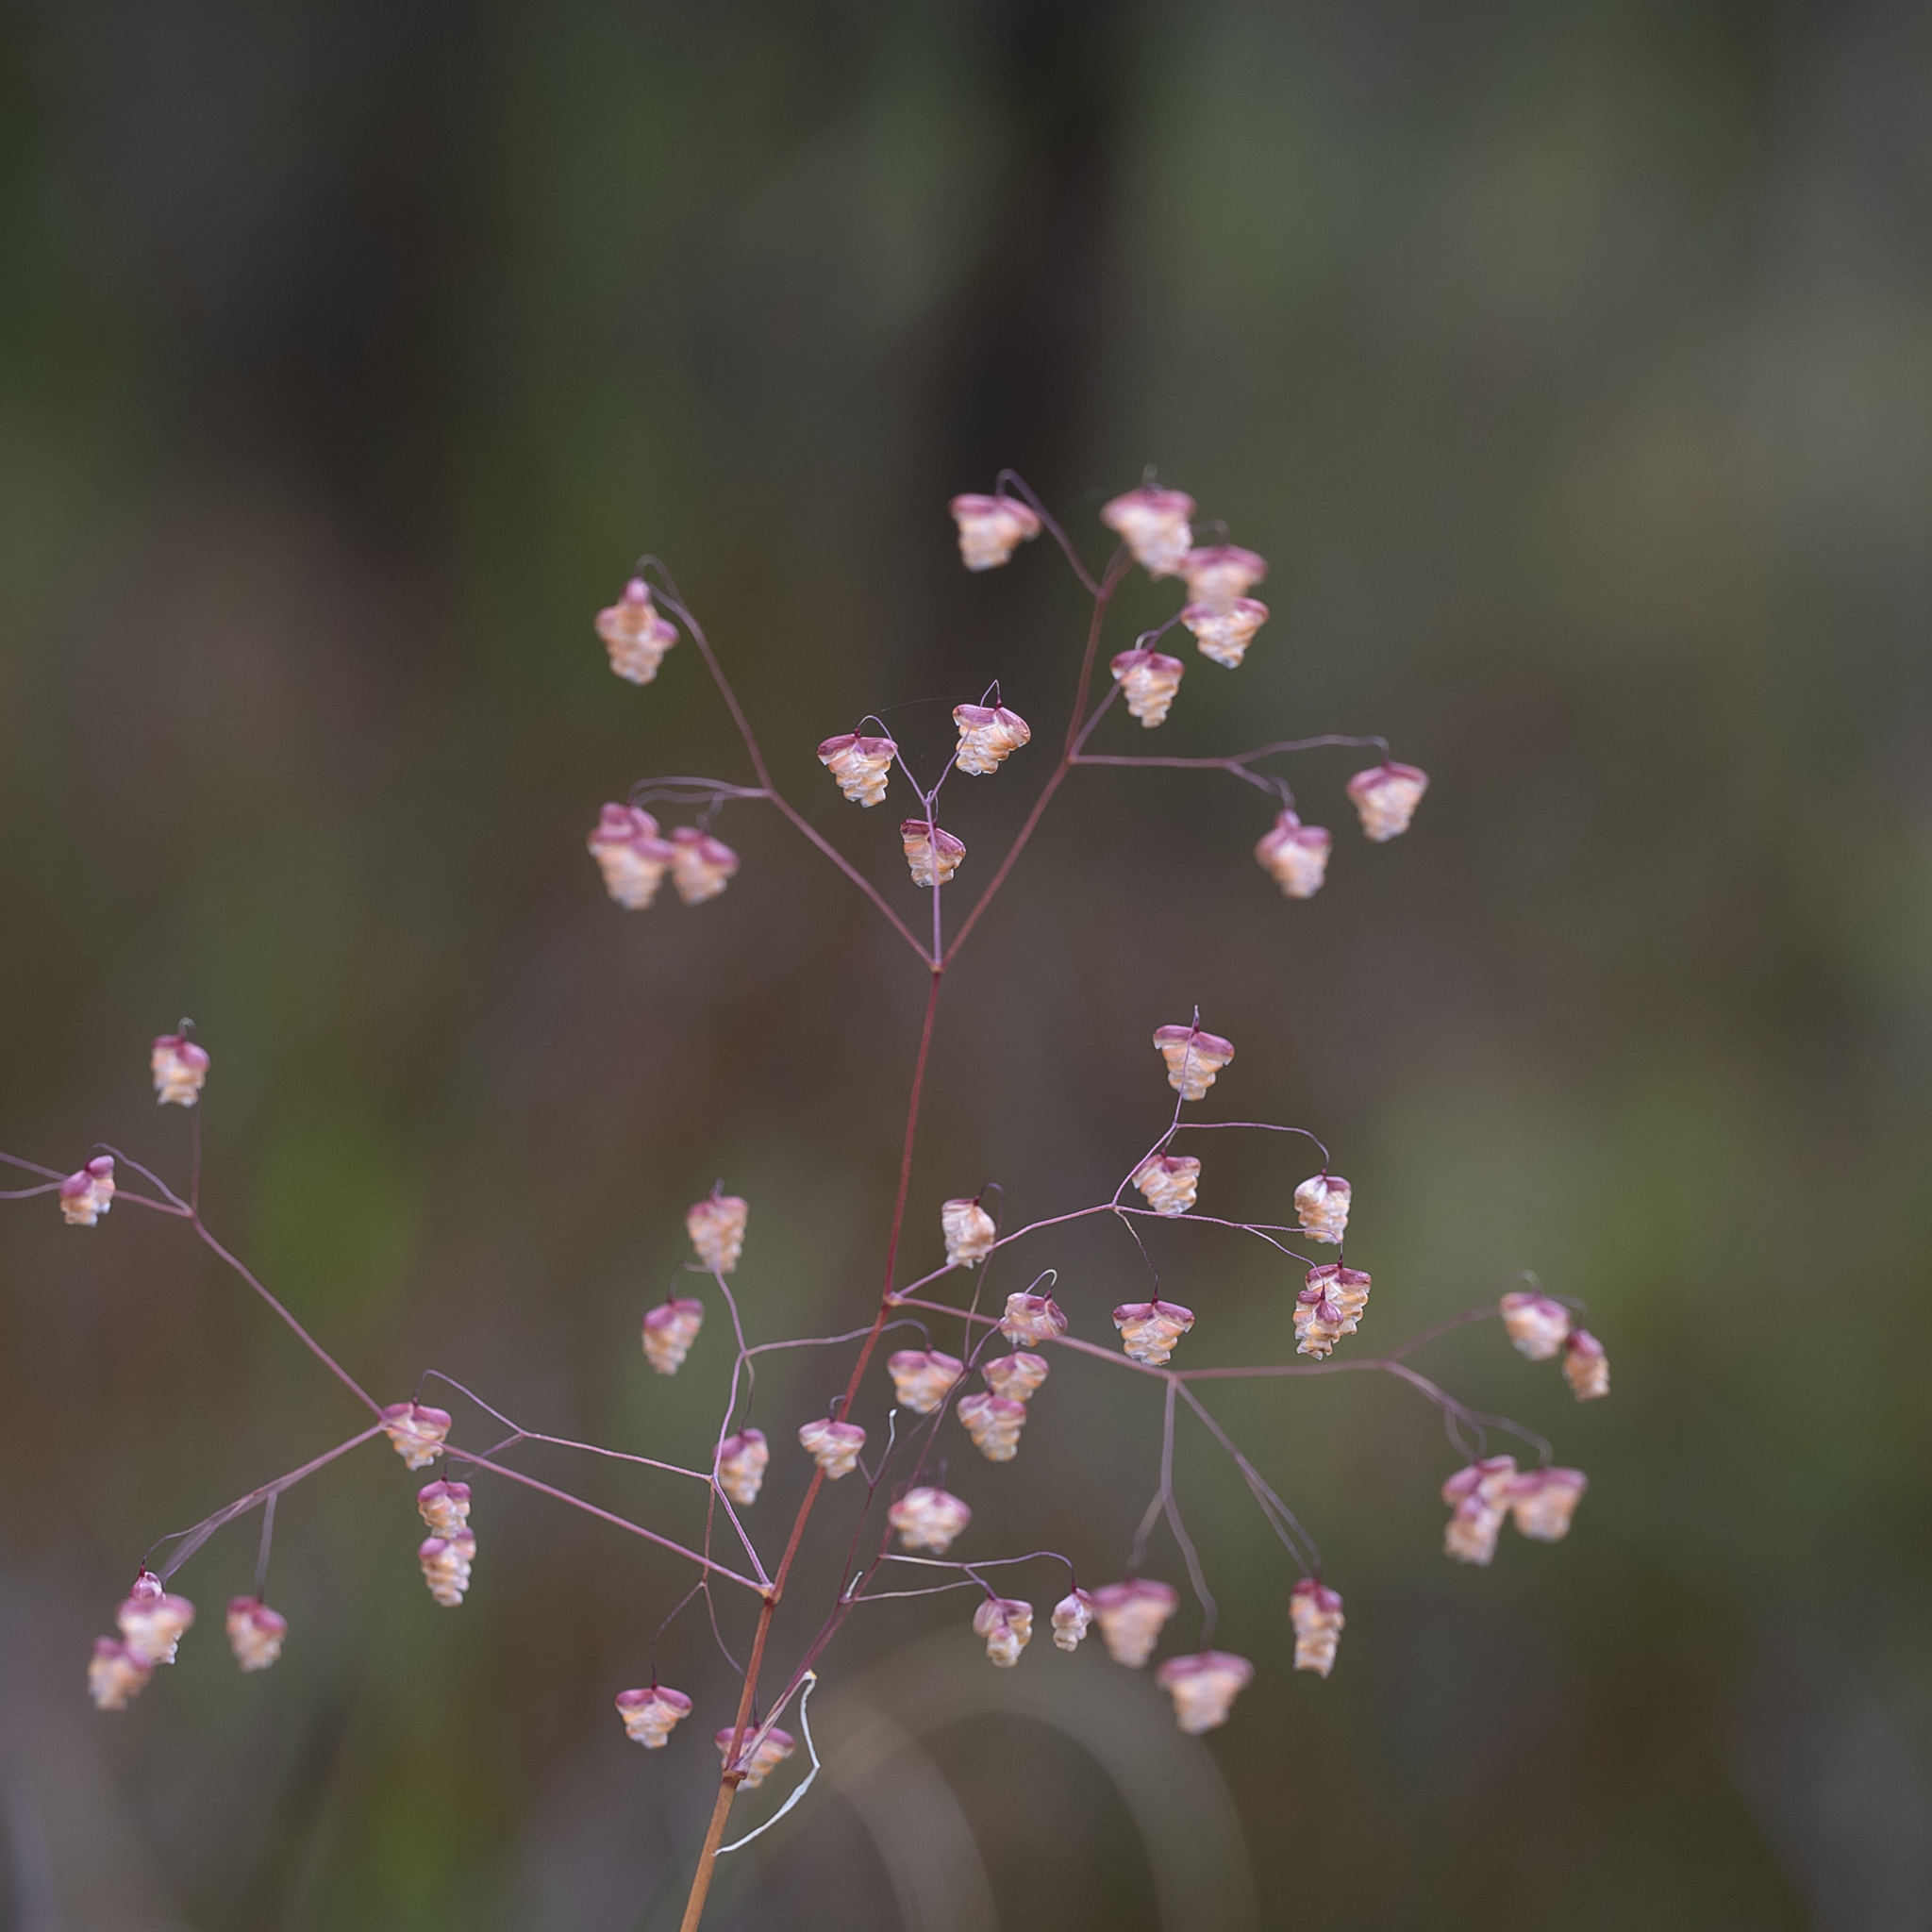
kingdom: Plantae
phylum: Tracheophyta
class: Liliopsida
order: Poales
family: Poaceae
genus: Briza
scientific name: Briza minor
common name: Lesser quaking-grass
